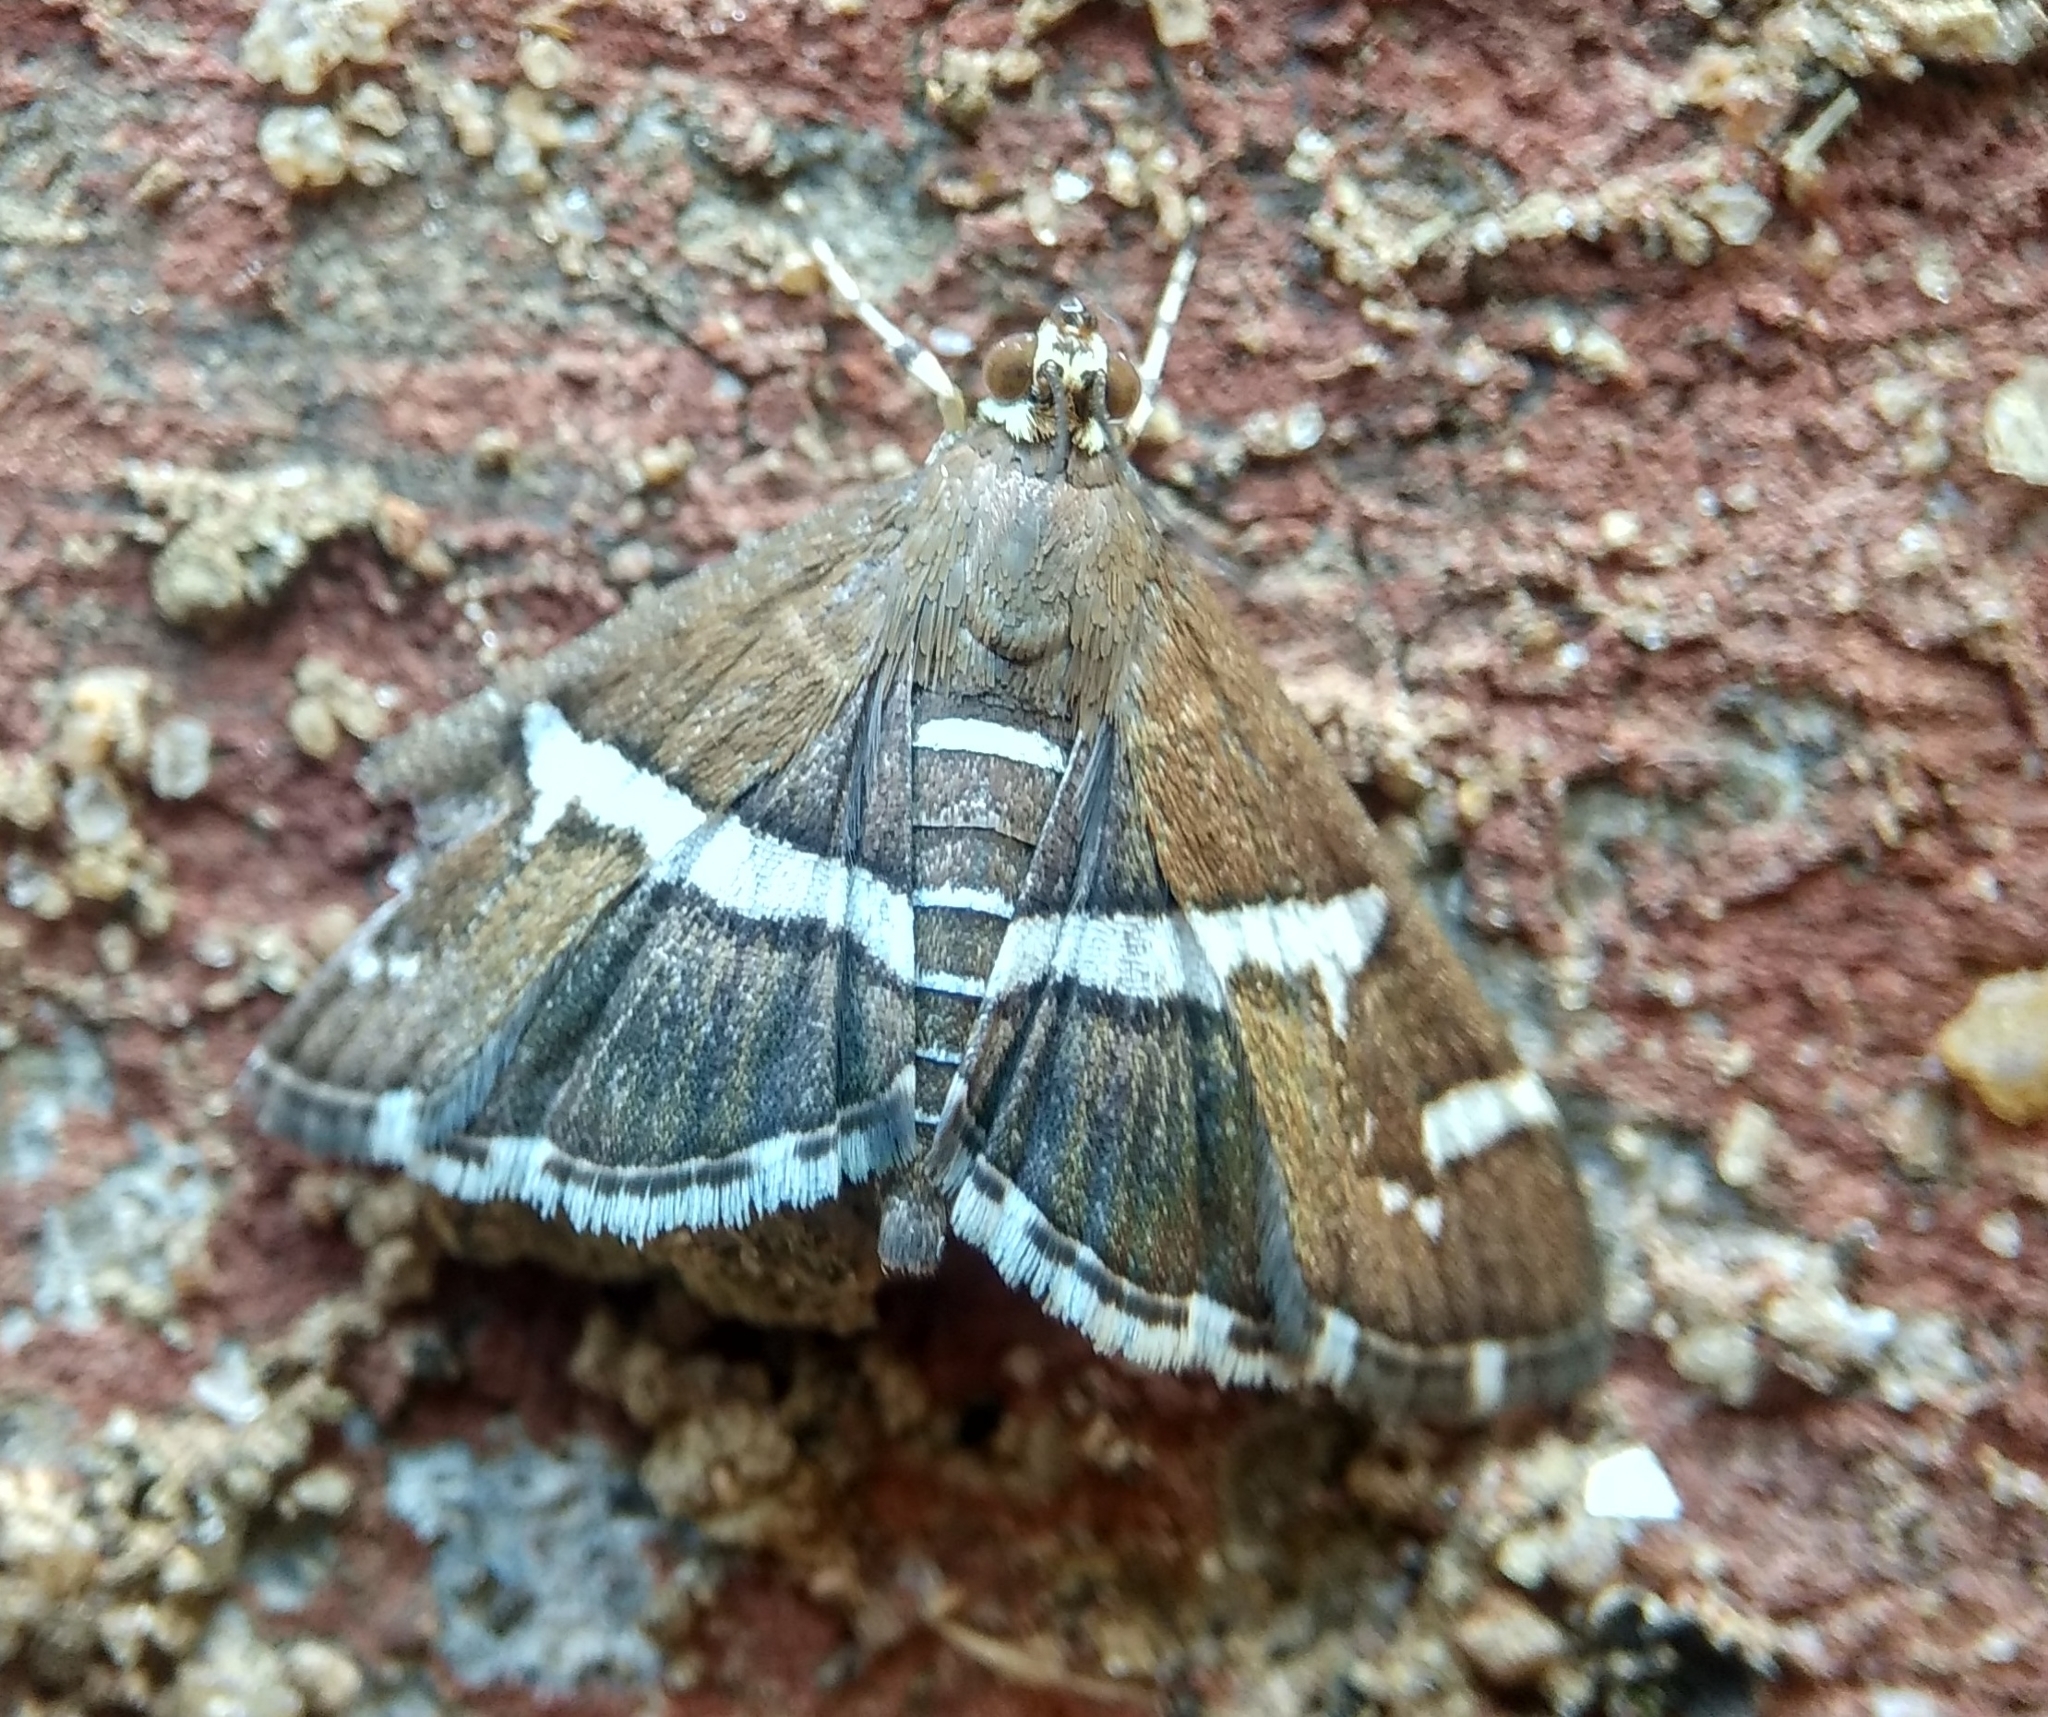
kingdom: Animalia
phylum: Arthropoda
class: Insecta
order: Lepidoptera
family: Crambidae
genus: Spoladea
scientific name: Spoladea recurvalis
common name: Beet webworm moth
